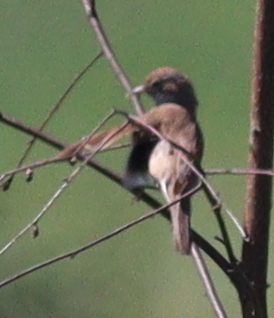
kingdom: Animalia
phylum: Chordata
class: Aves
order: Passeriformes
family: Sylviidae
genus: Sylvia
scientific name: Sylvia communis
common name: Common whitethroat
